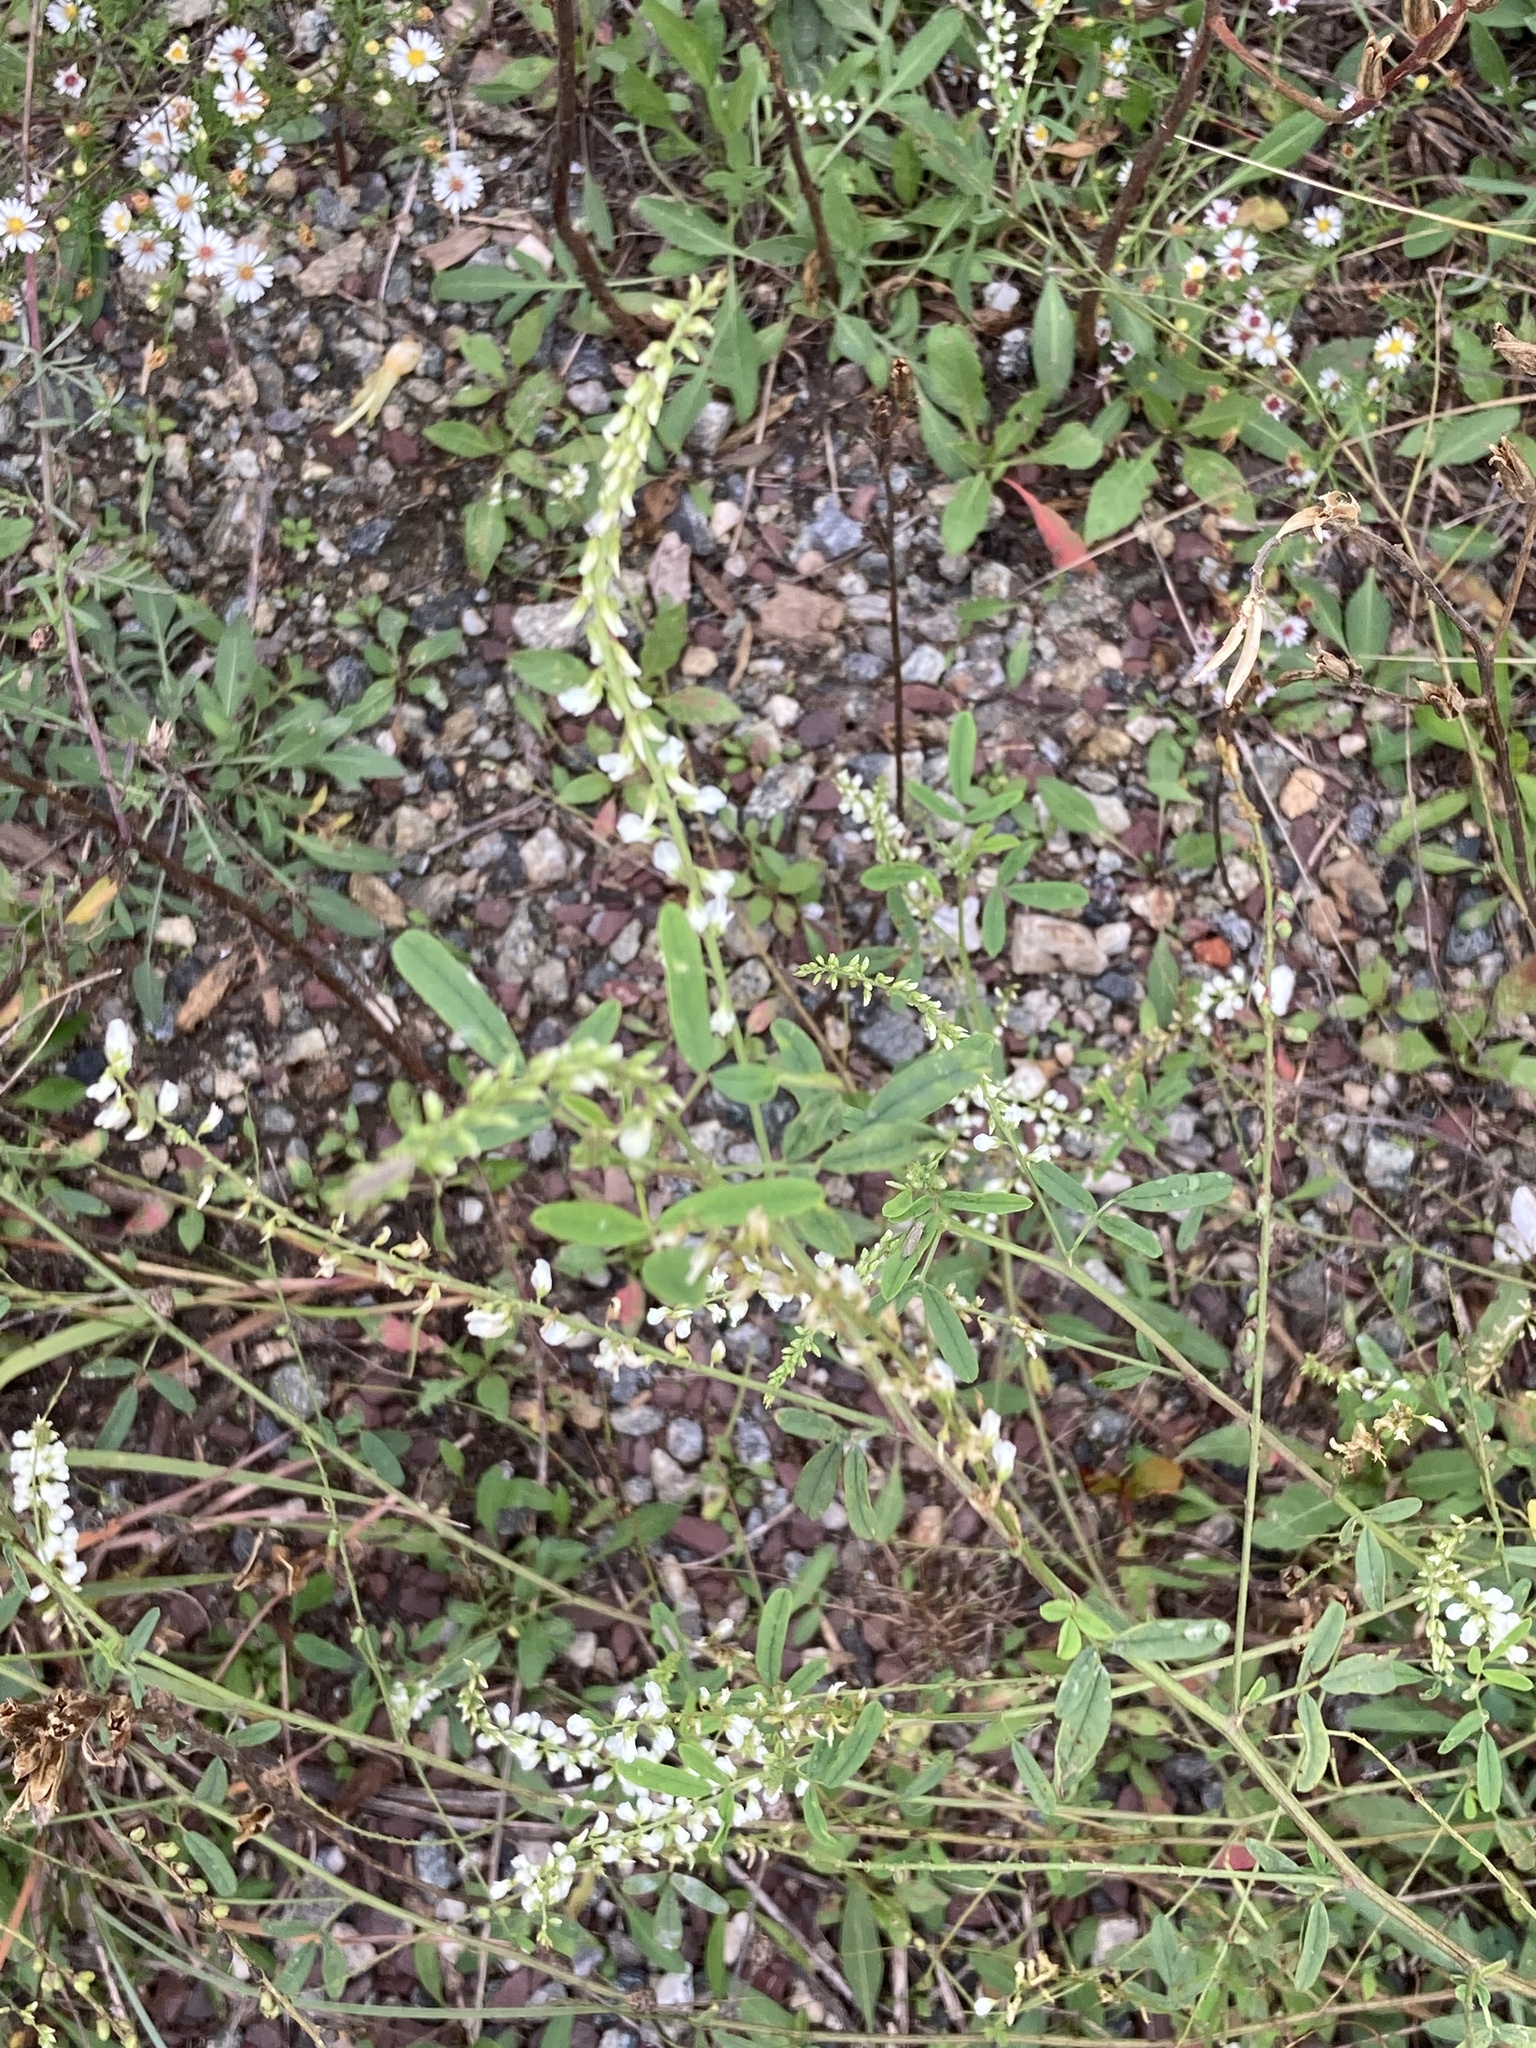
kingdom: Plantae
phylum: Tracheophyta
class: Magnoliopsida
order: Fabales
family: Fabaceae
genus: Melilotus
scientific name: Melilotus albus
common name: White melilot
